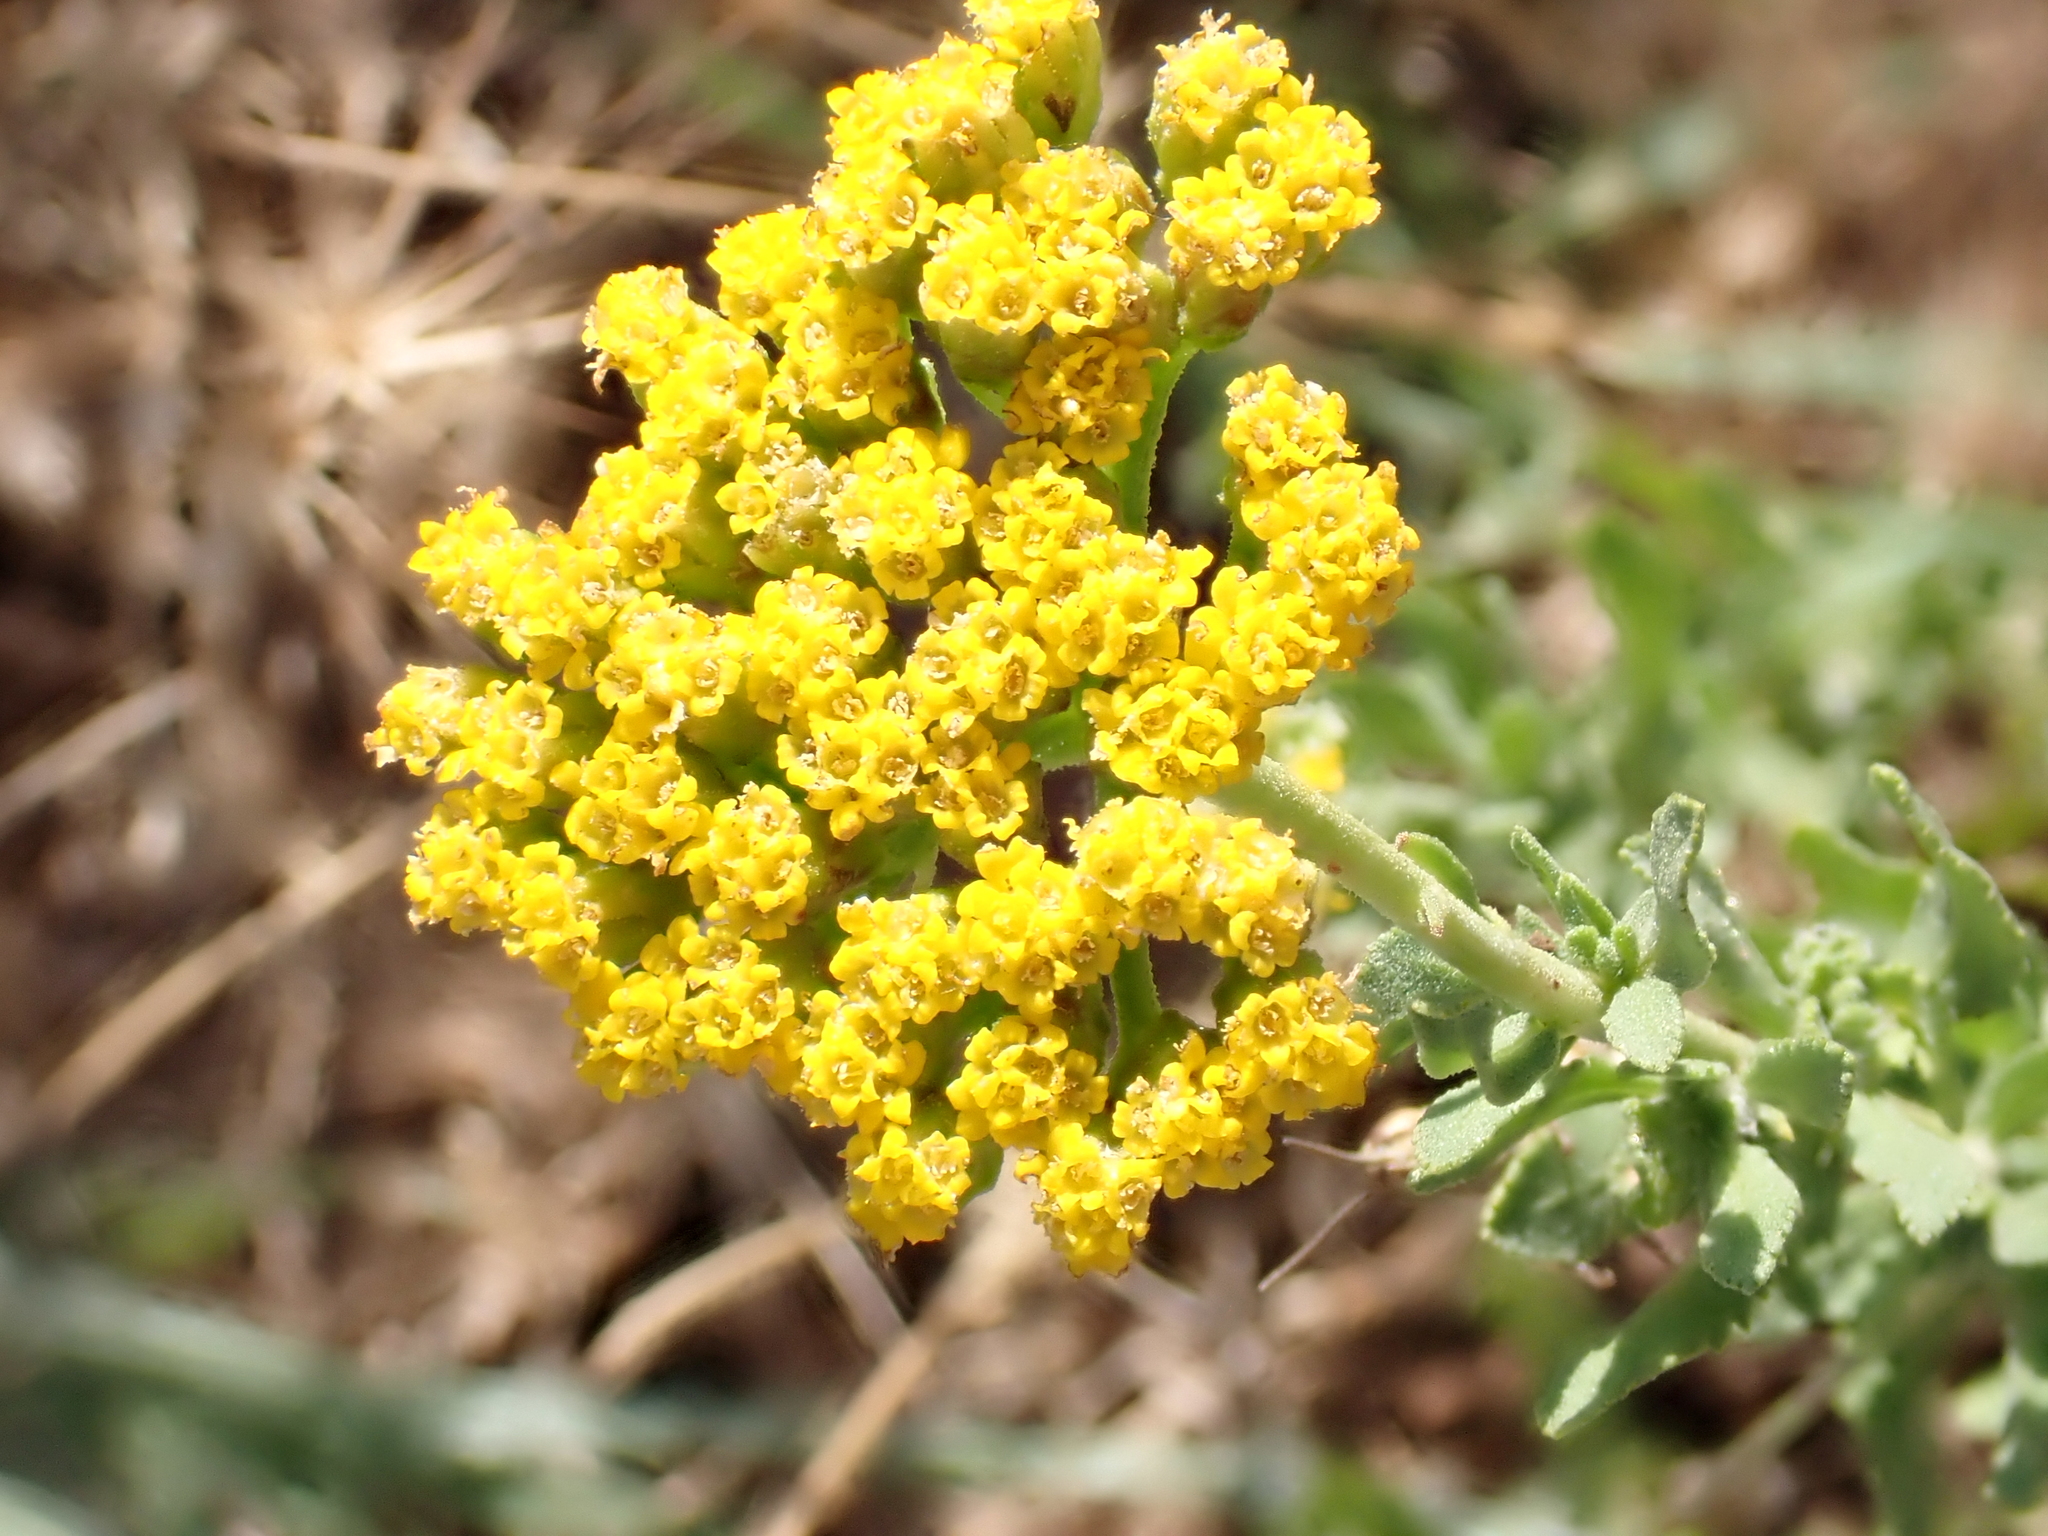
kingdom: Plantae
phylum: Tracheophyta
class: Magnoliopsida
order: Asterales
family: Asteraceae
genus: Achillea
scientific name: Achillea ageratum
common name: Sweet-nancy
